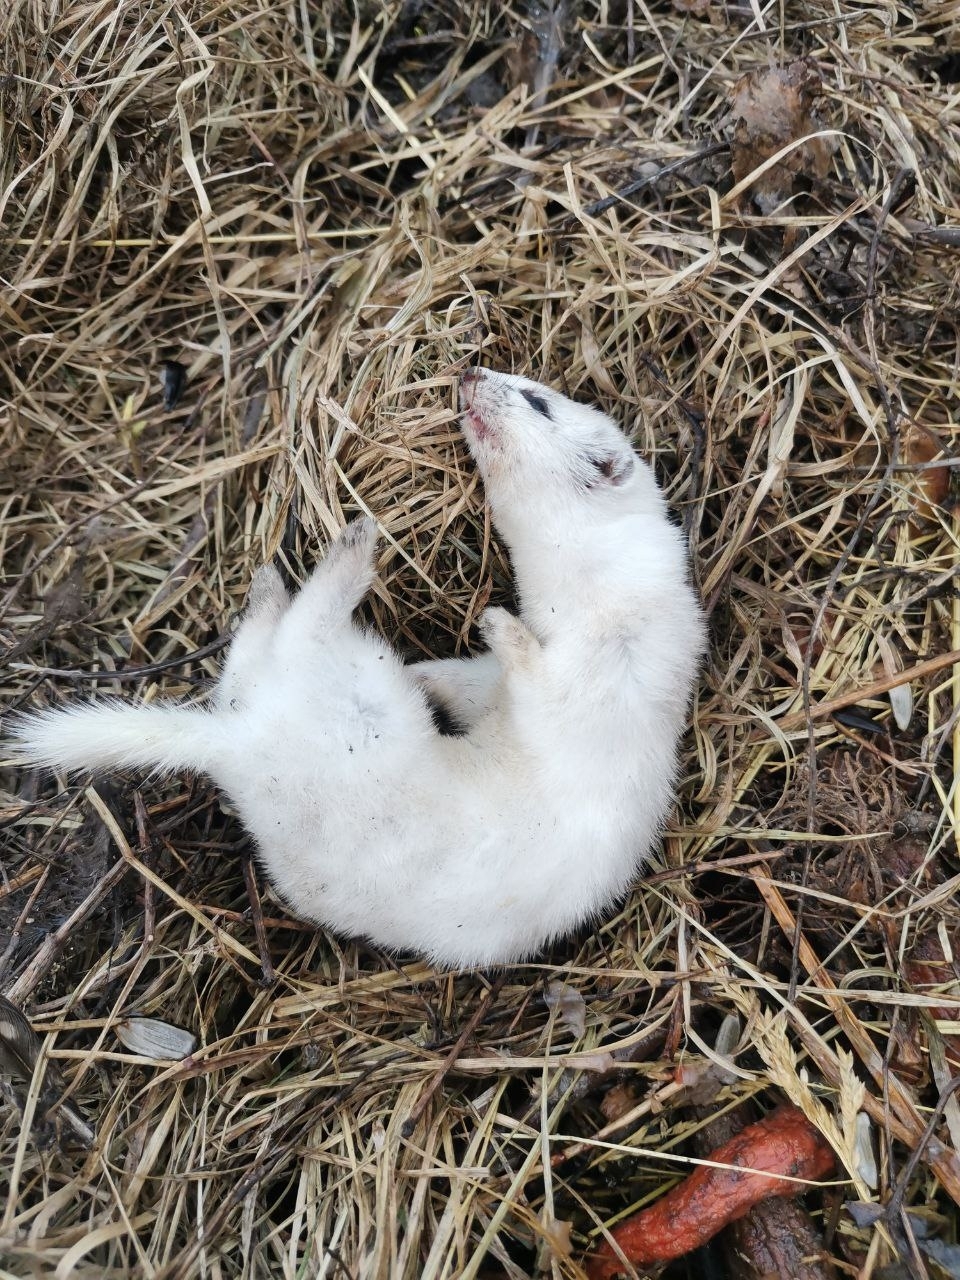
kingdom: Animalia
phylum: Chordata
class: Mammalia
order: Carnivora
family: Mustelidae
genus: Mustela
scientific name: Mustela nivalis
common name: Least weasel
